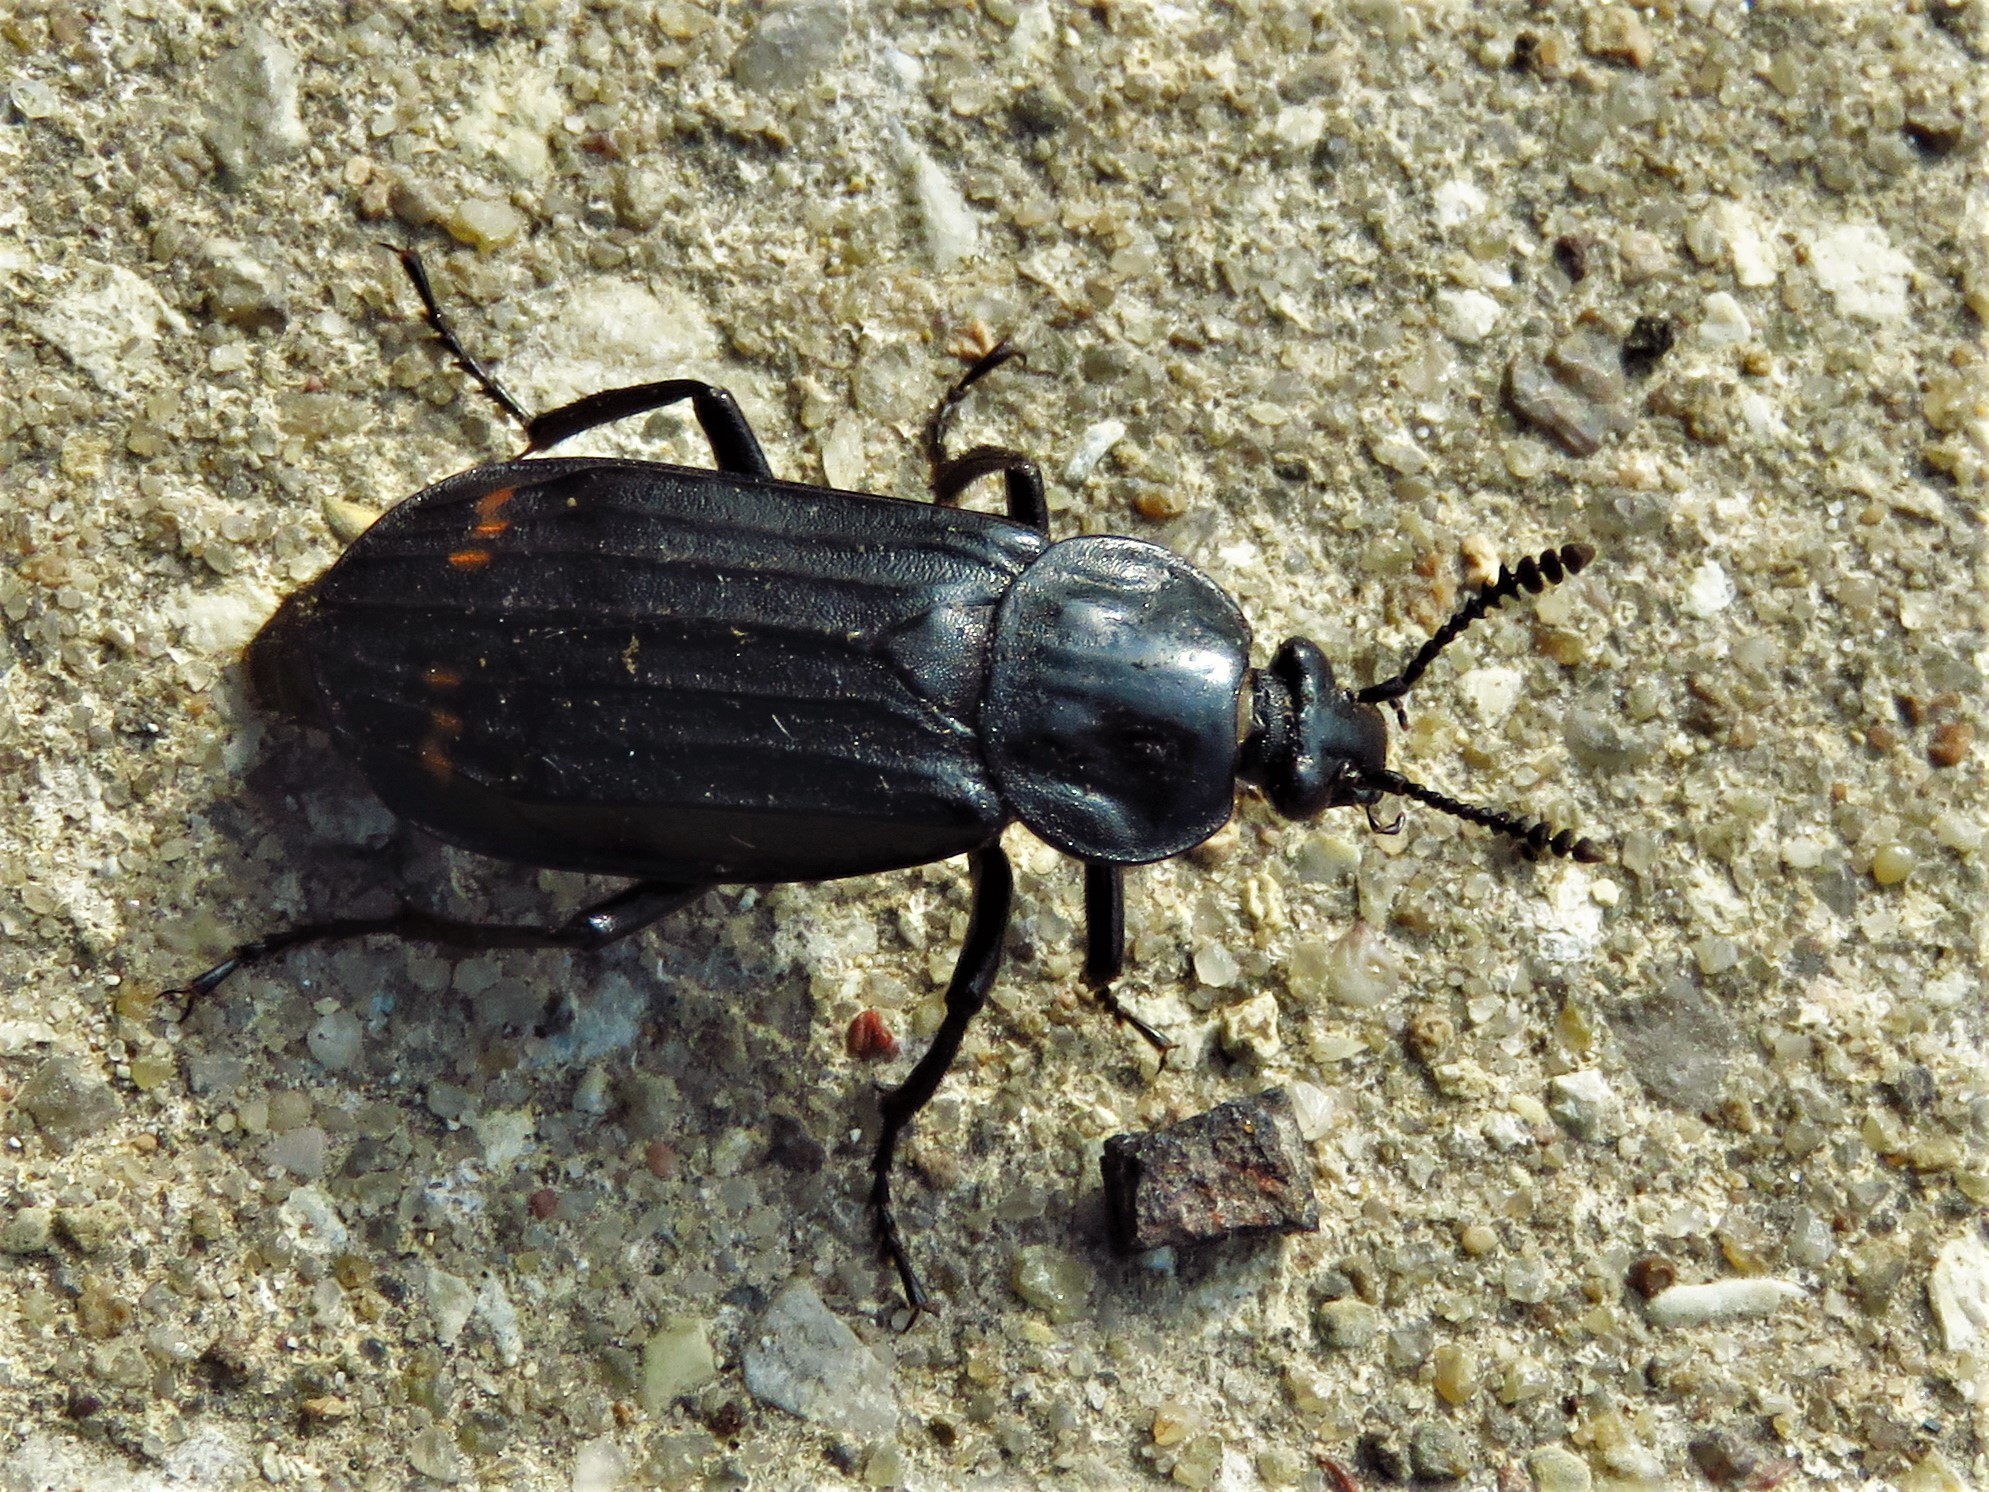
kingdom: Animalia
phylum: Arthropoda
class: Insecta
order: Coleoptera
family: Staphylinidae
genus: Necrodes
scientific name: Necrodes surinamensis
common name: Red-lined carrion beetle
